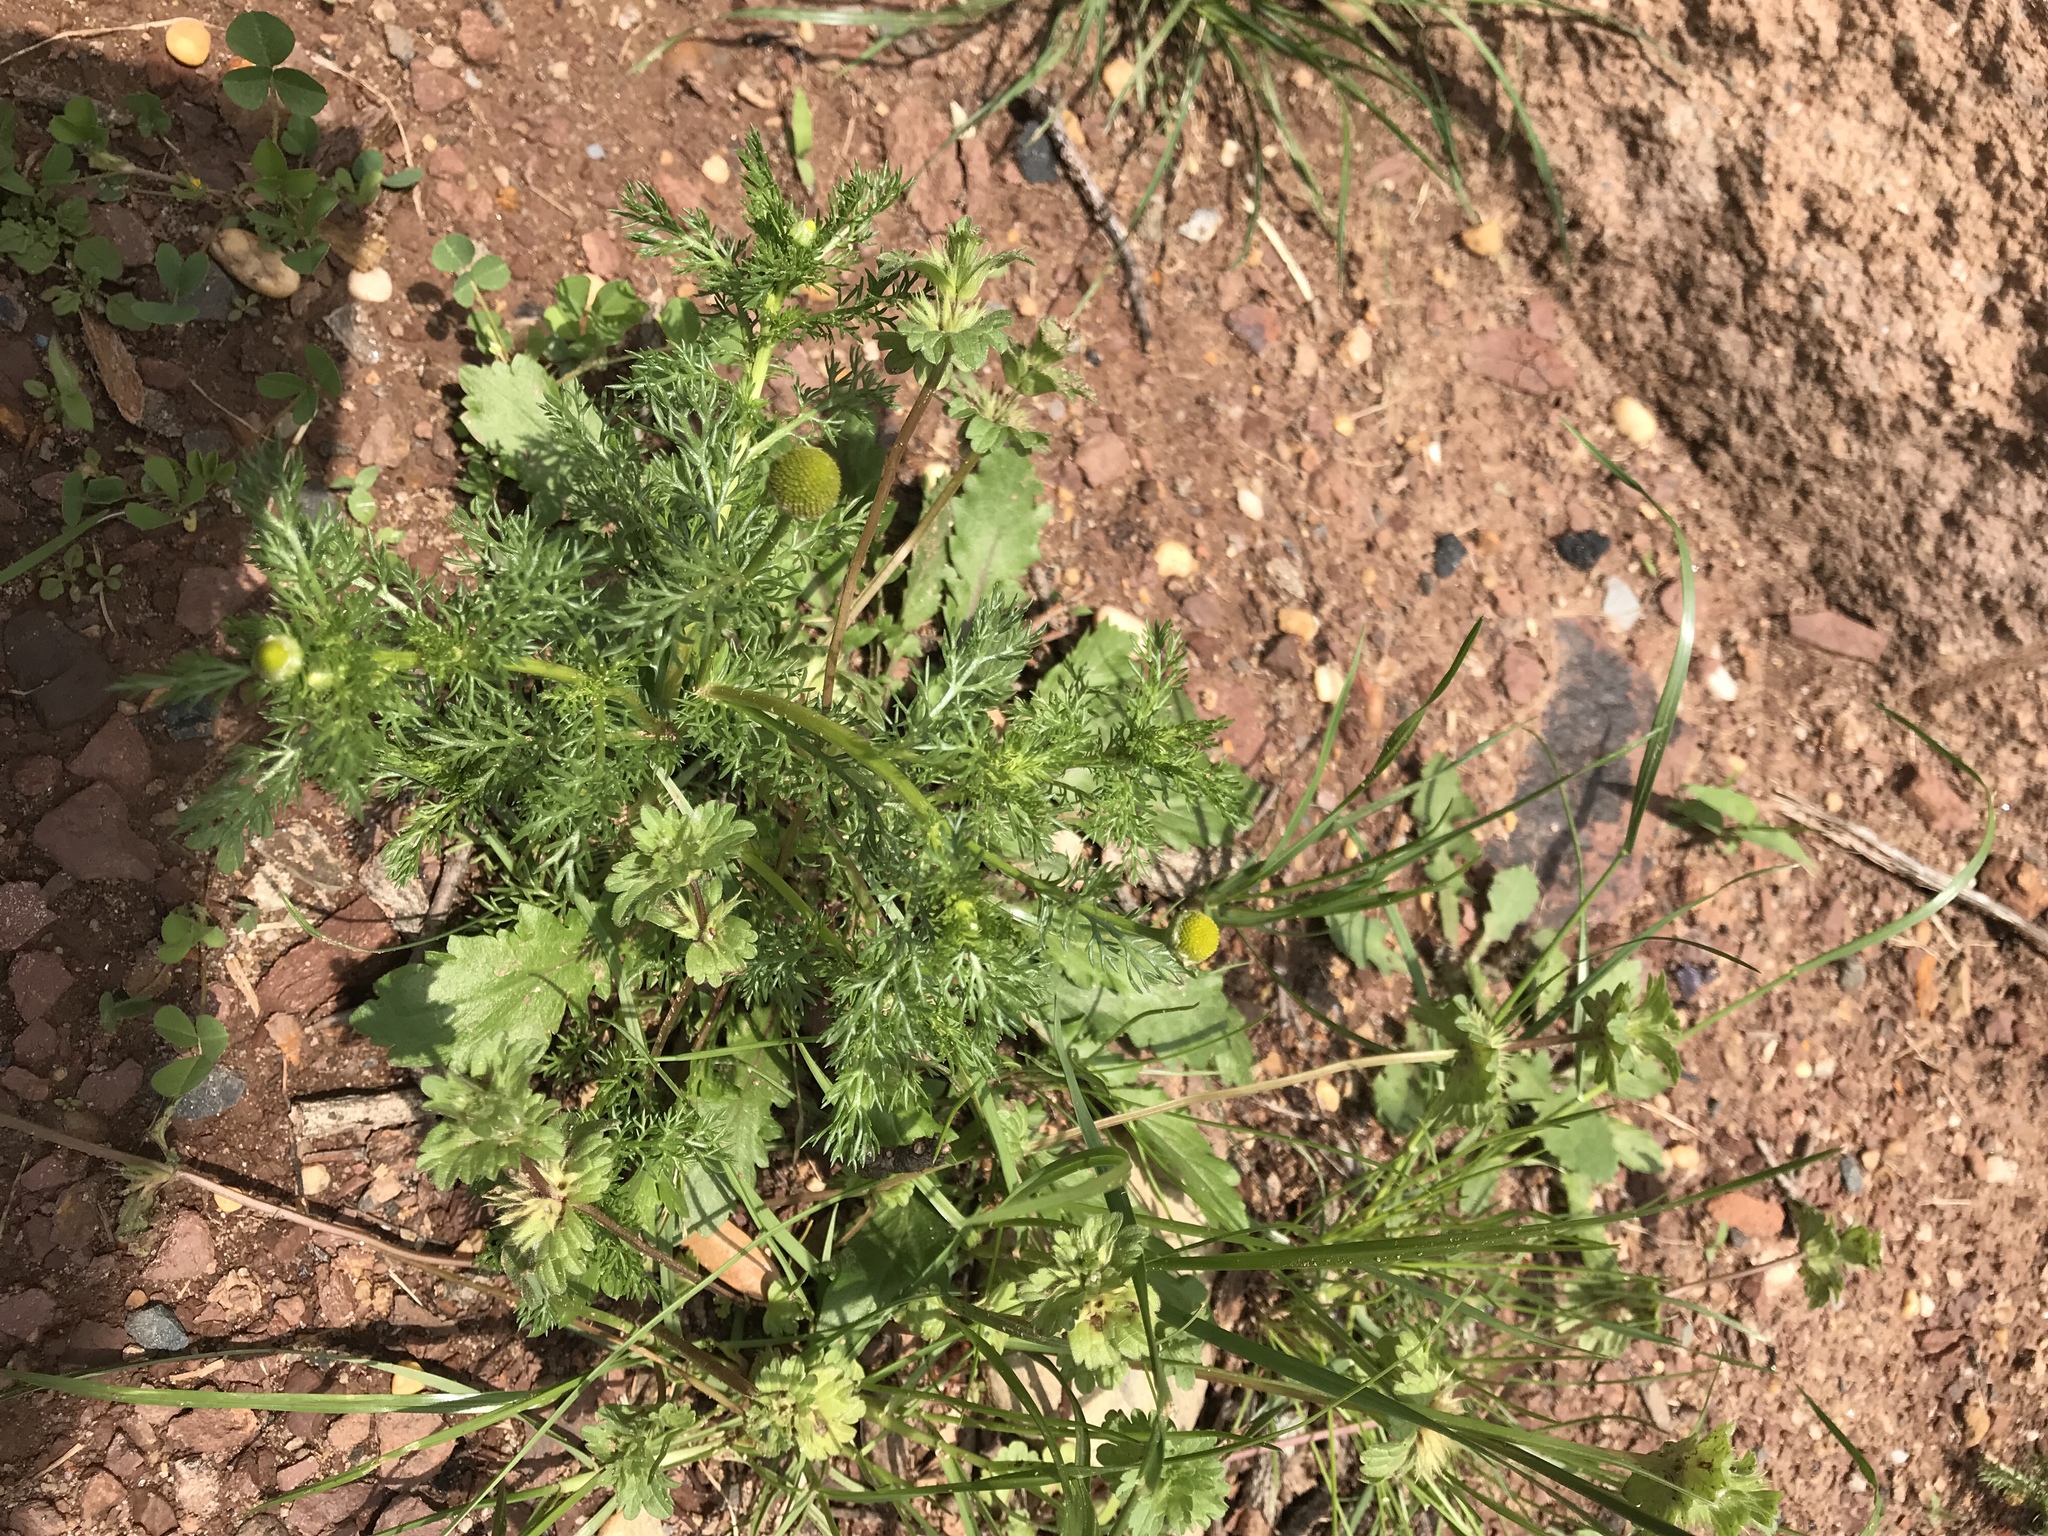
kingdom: Plantae
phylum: Tracheophyta
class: Magnoliopsida
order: Asterales
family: Asteraceae
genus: Matricaria
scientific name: Matricaria discoidea
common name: Disc mayweed
